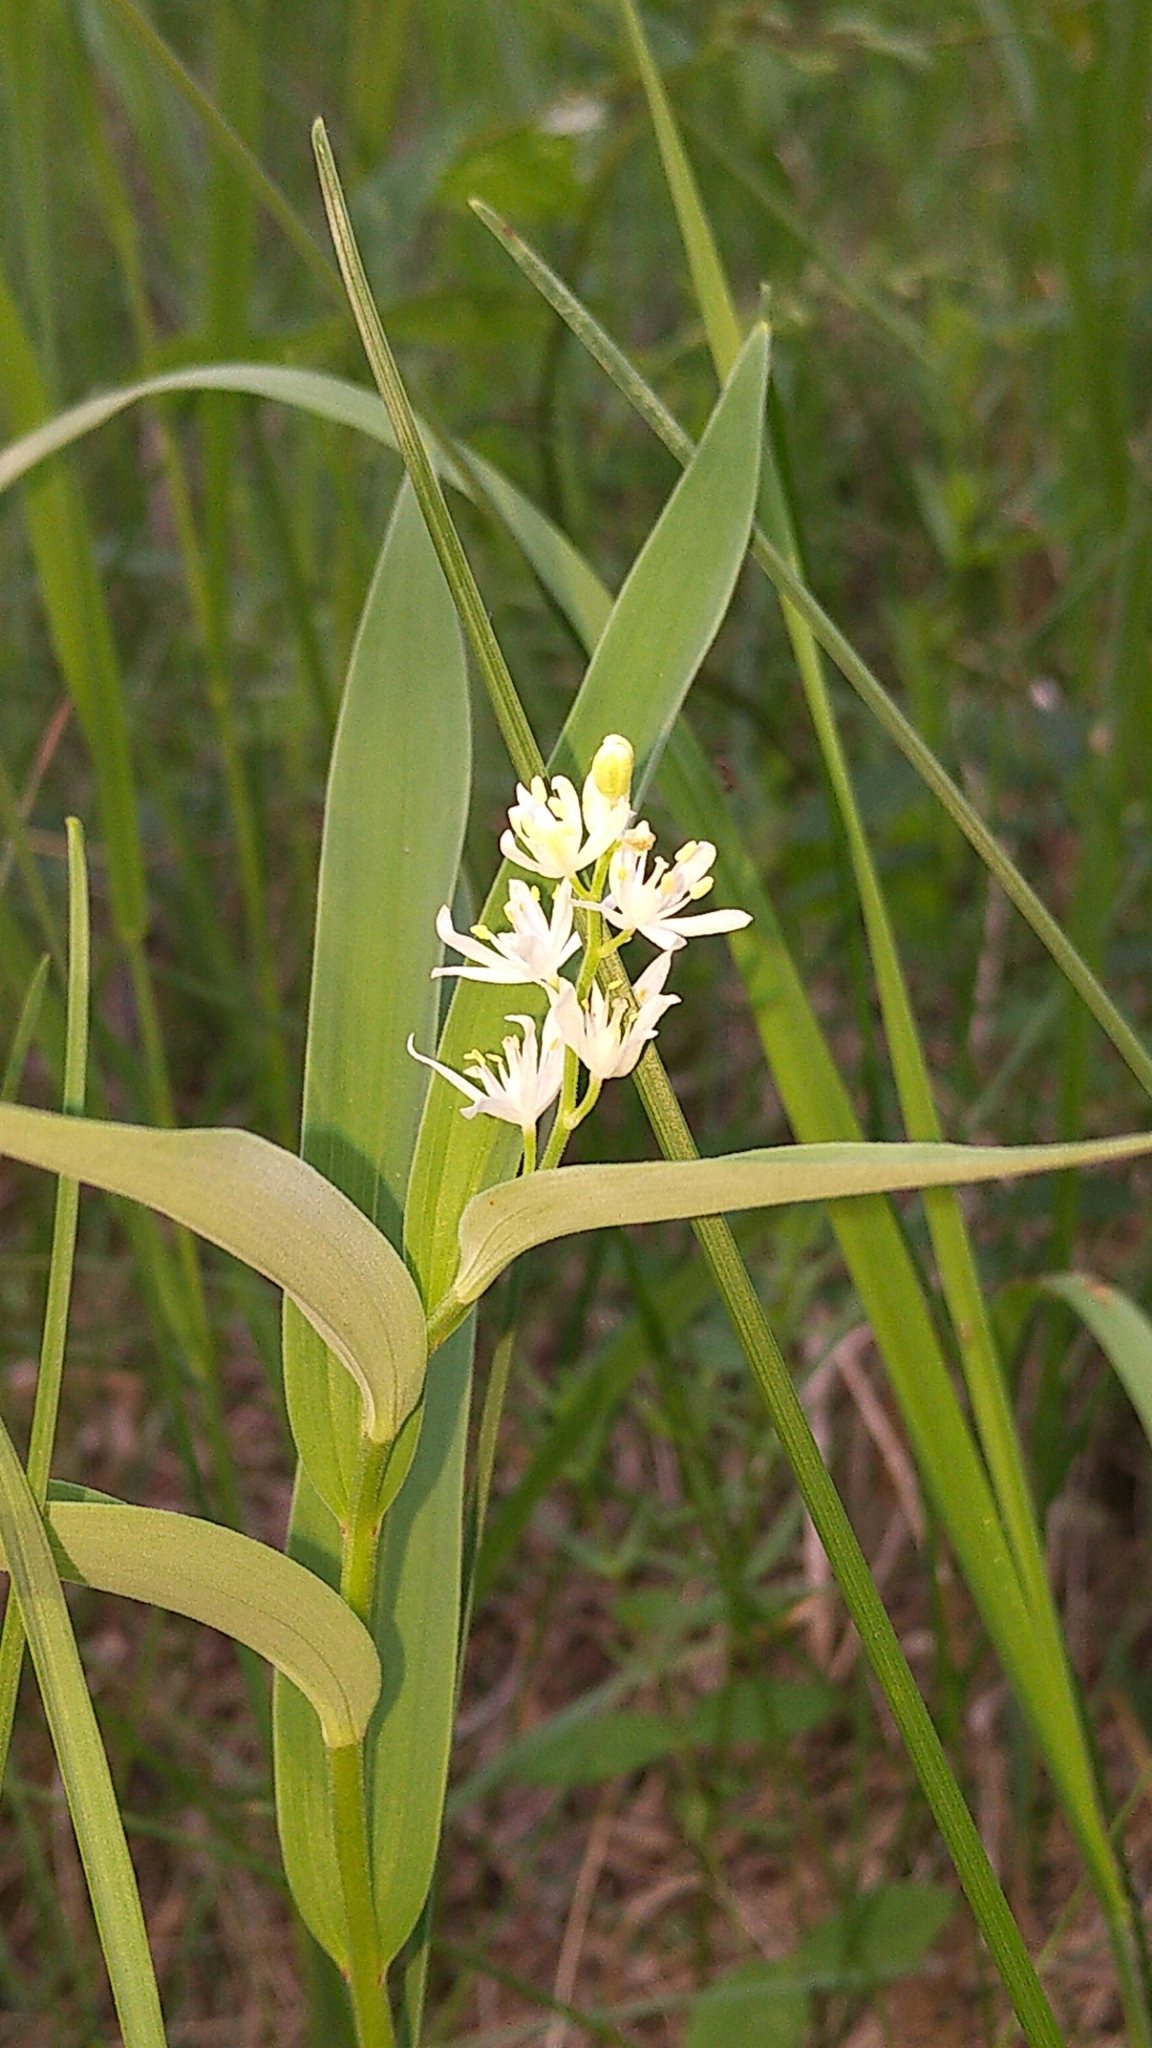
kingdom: Plantae
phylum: Tracheophyta
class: Liliopsida
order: Asparagales
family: Asparagaceae
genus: Maianthemum
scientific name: Maianthemum stellatum
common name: Little false solomon's seal
